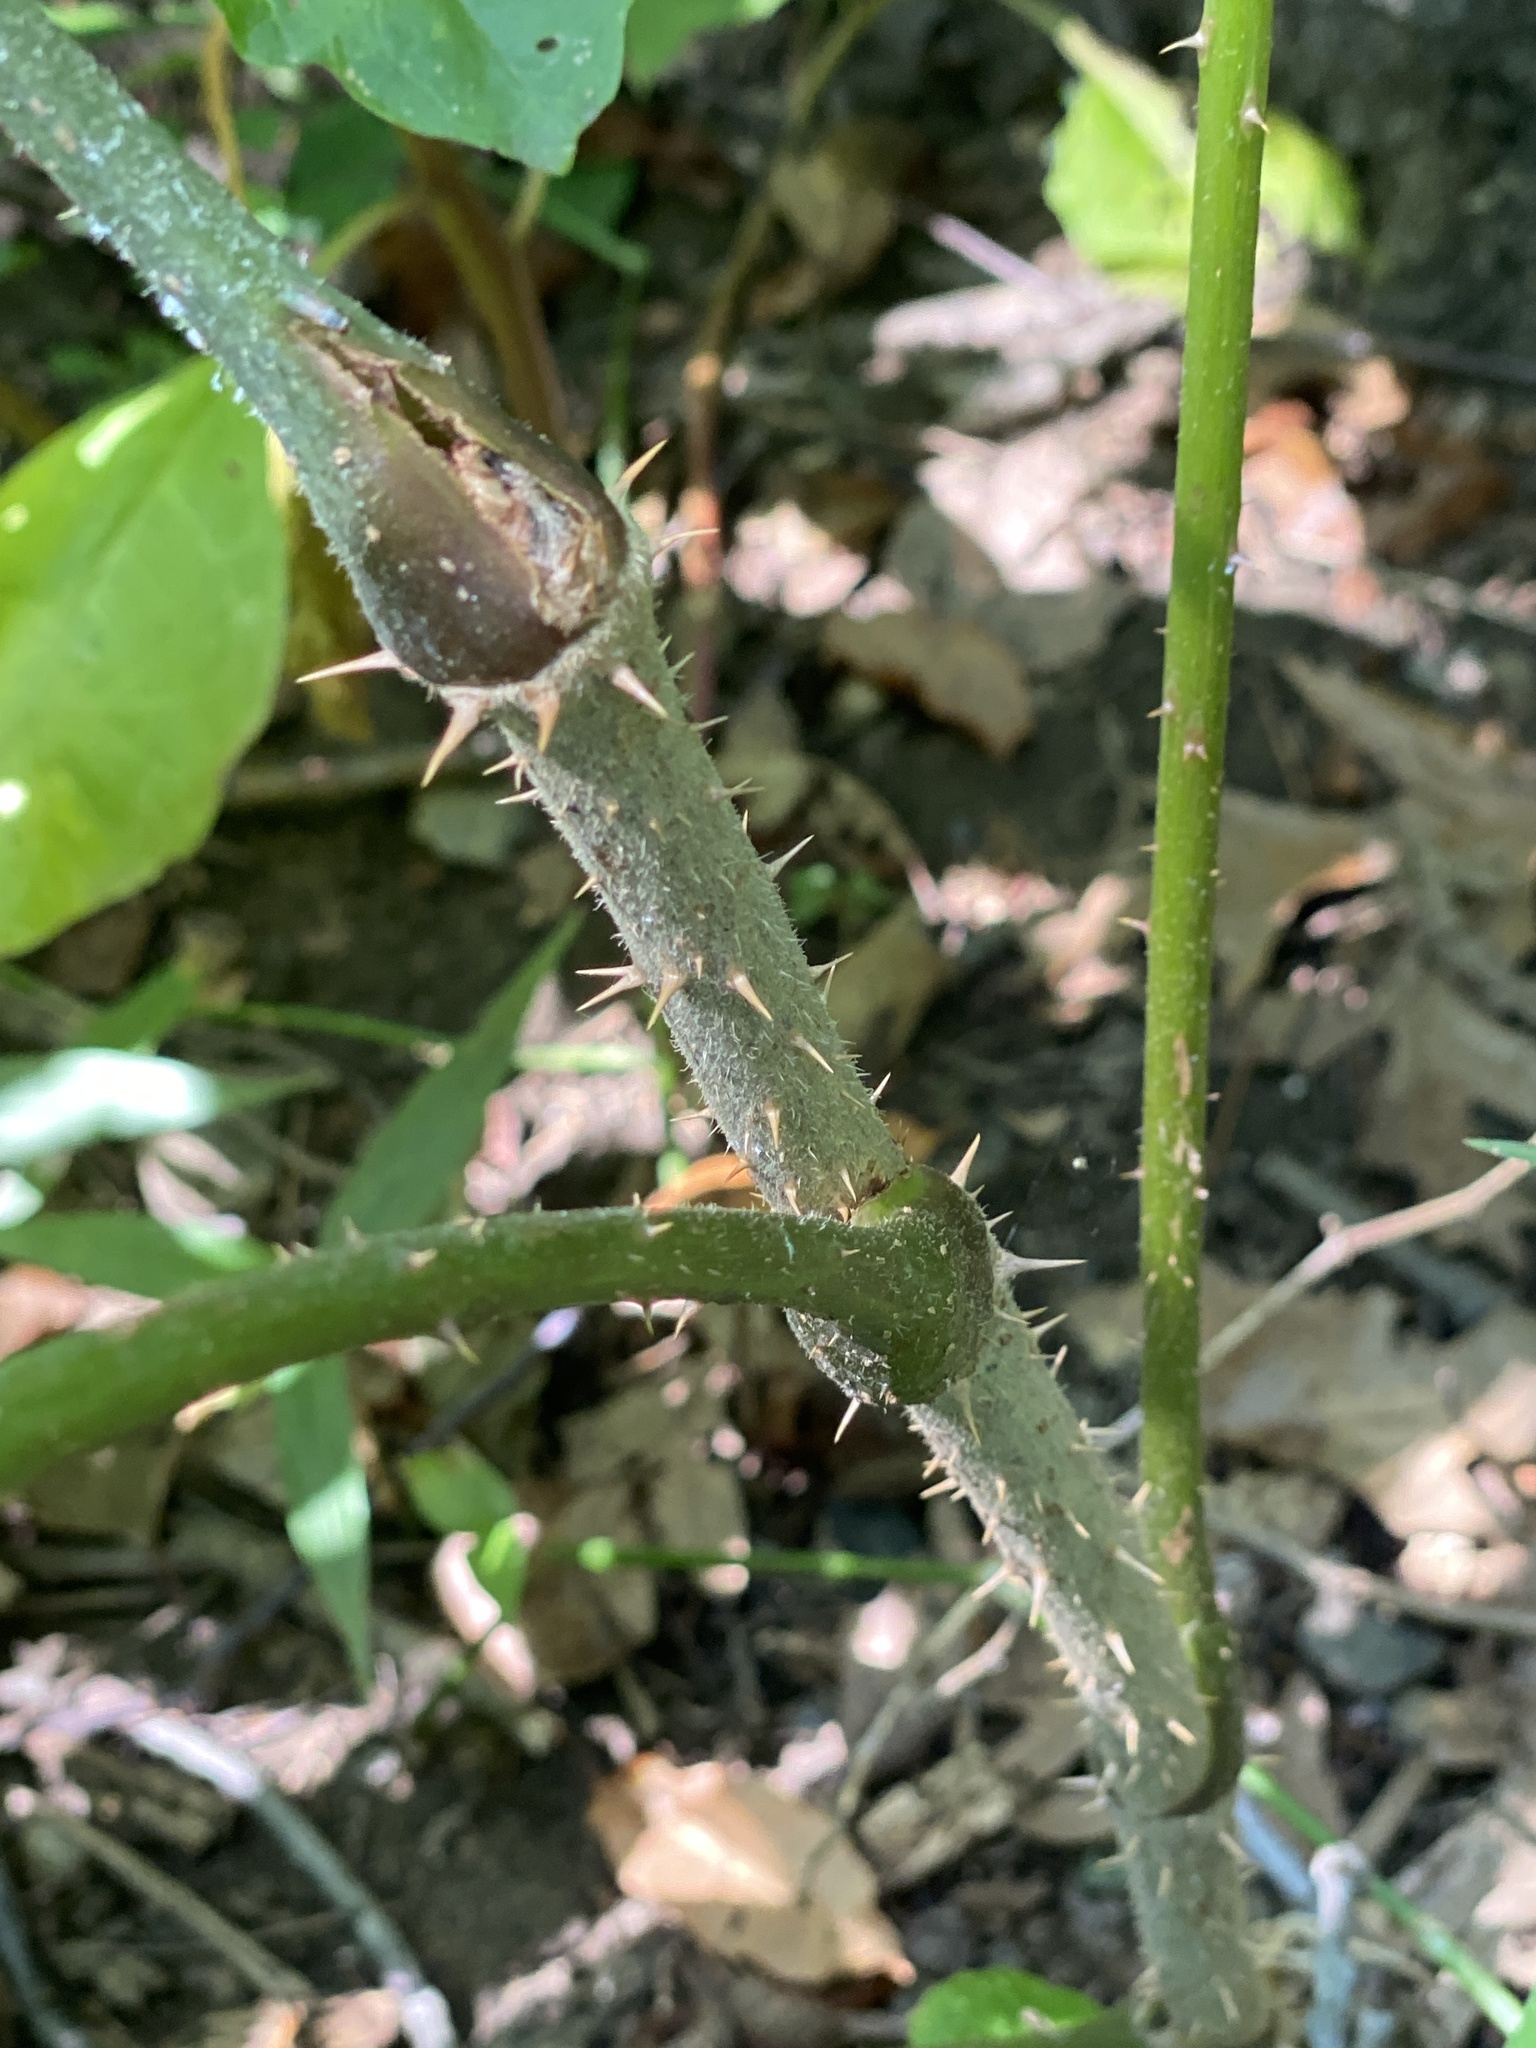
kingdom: Plantae
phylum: Tracheophyta
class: Magnoliopsida
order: Apiales
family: Araliaceae
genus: Aralia
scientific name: Aralia elata
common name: Japanese angelica-tree
